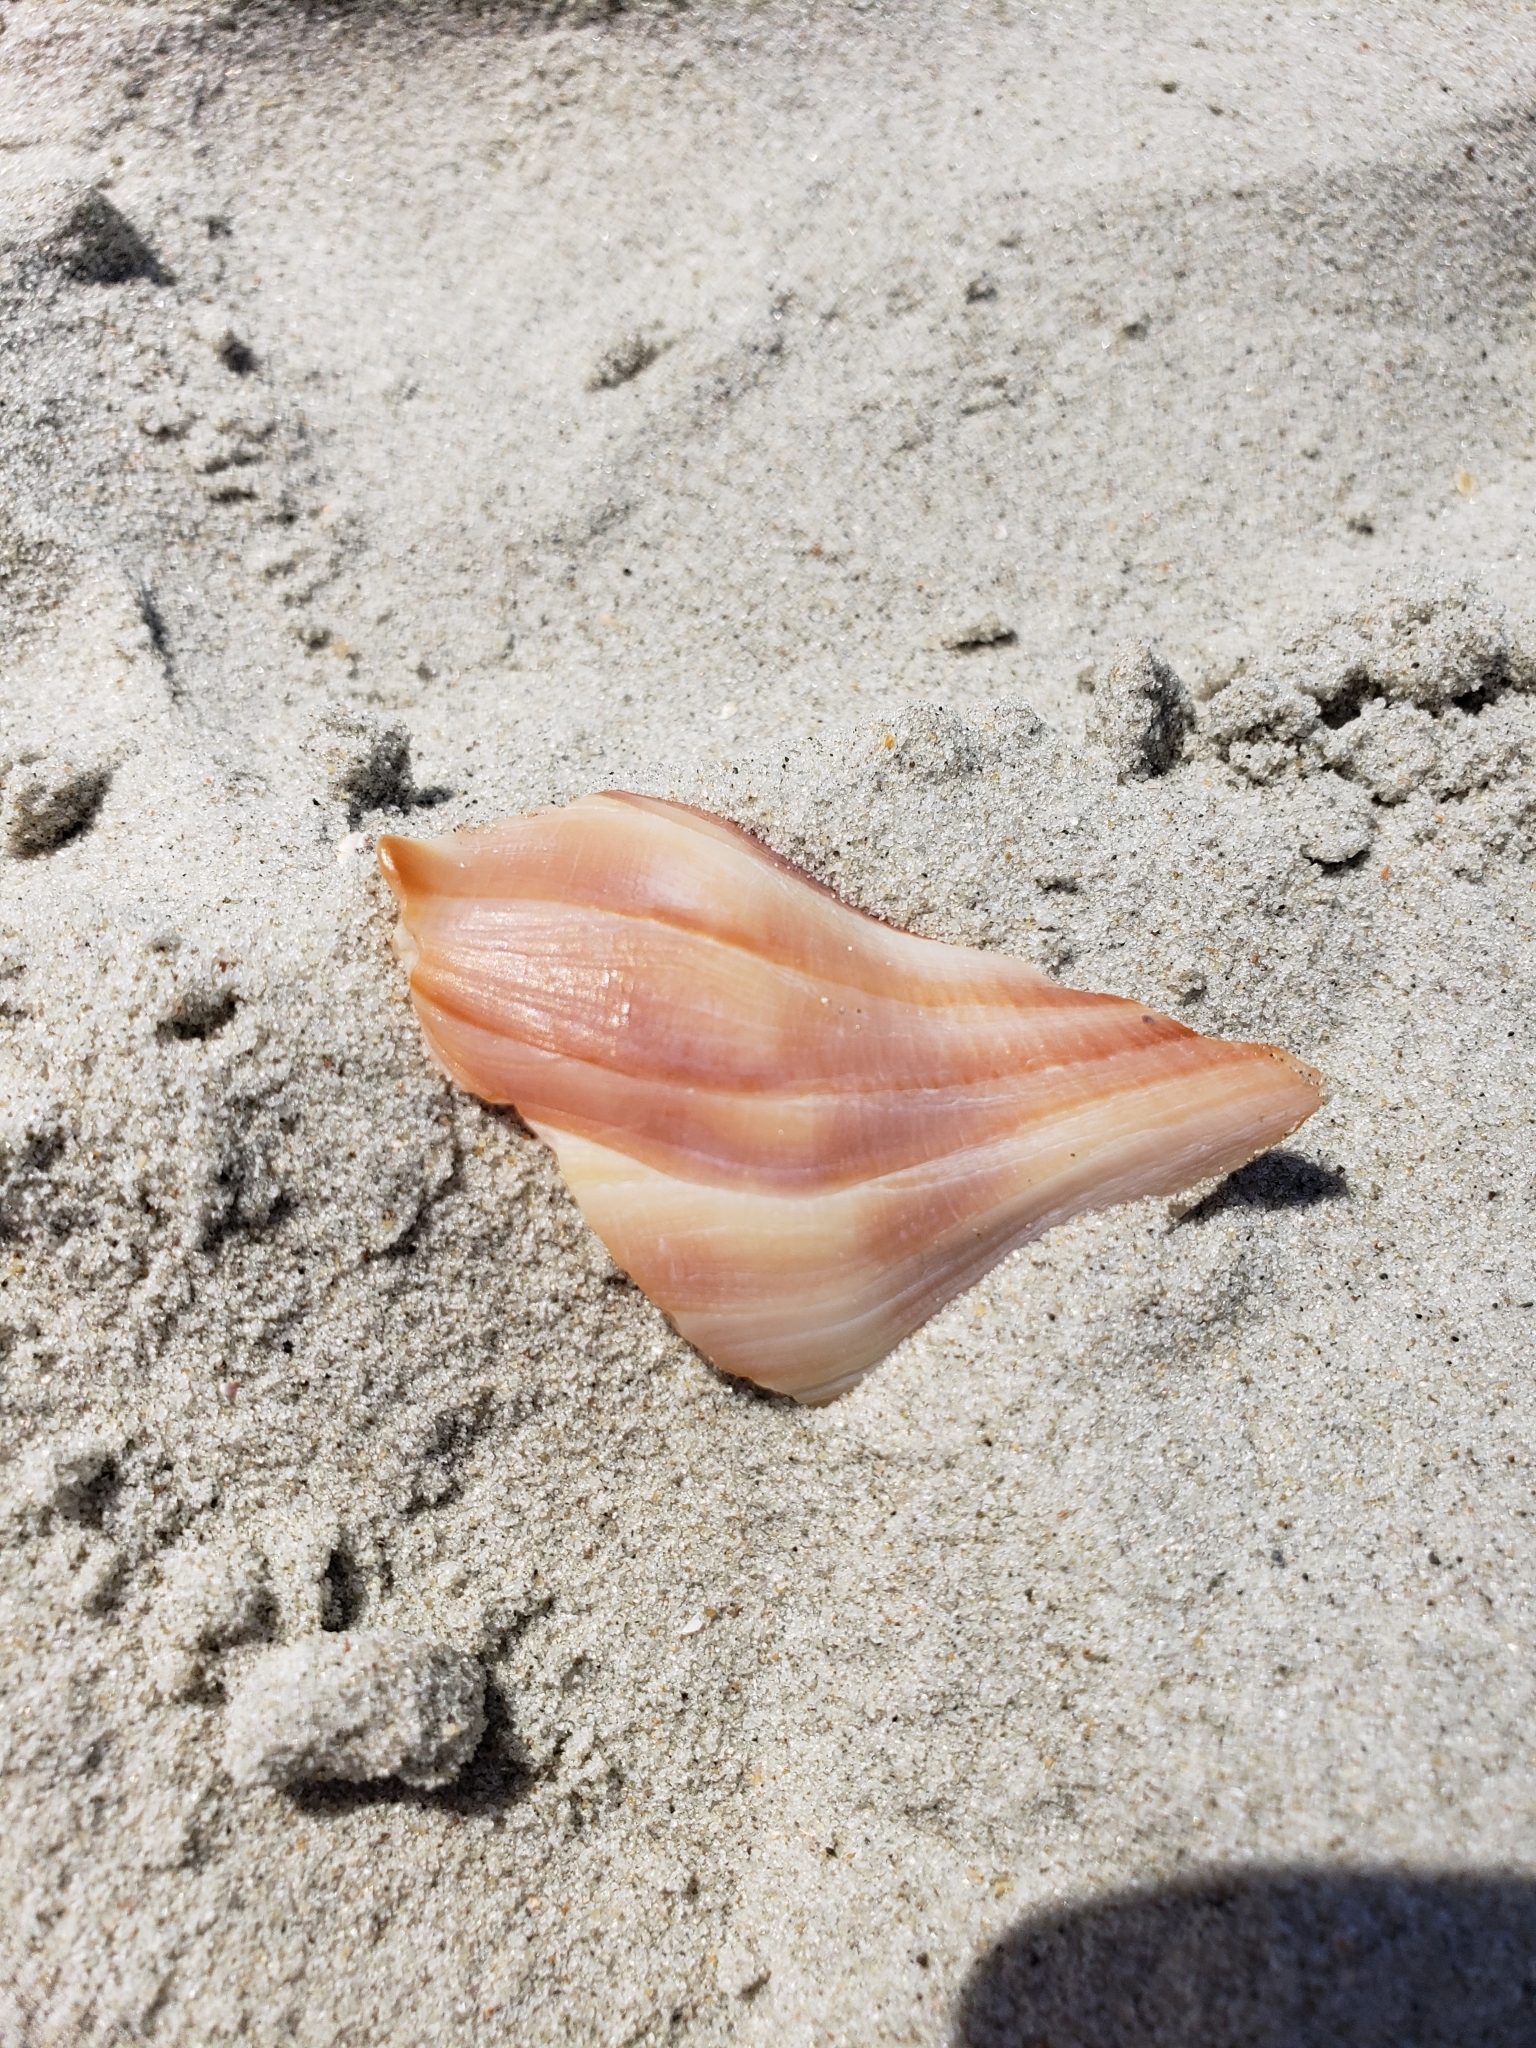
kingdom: Animalia
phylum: Mollusca
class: Gastropoda
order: Neogastropoda
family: Busyconidae
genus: Busycon
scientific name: Busycon carica
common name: Knobbed whelk
